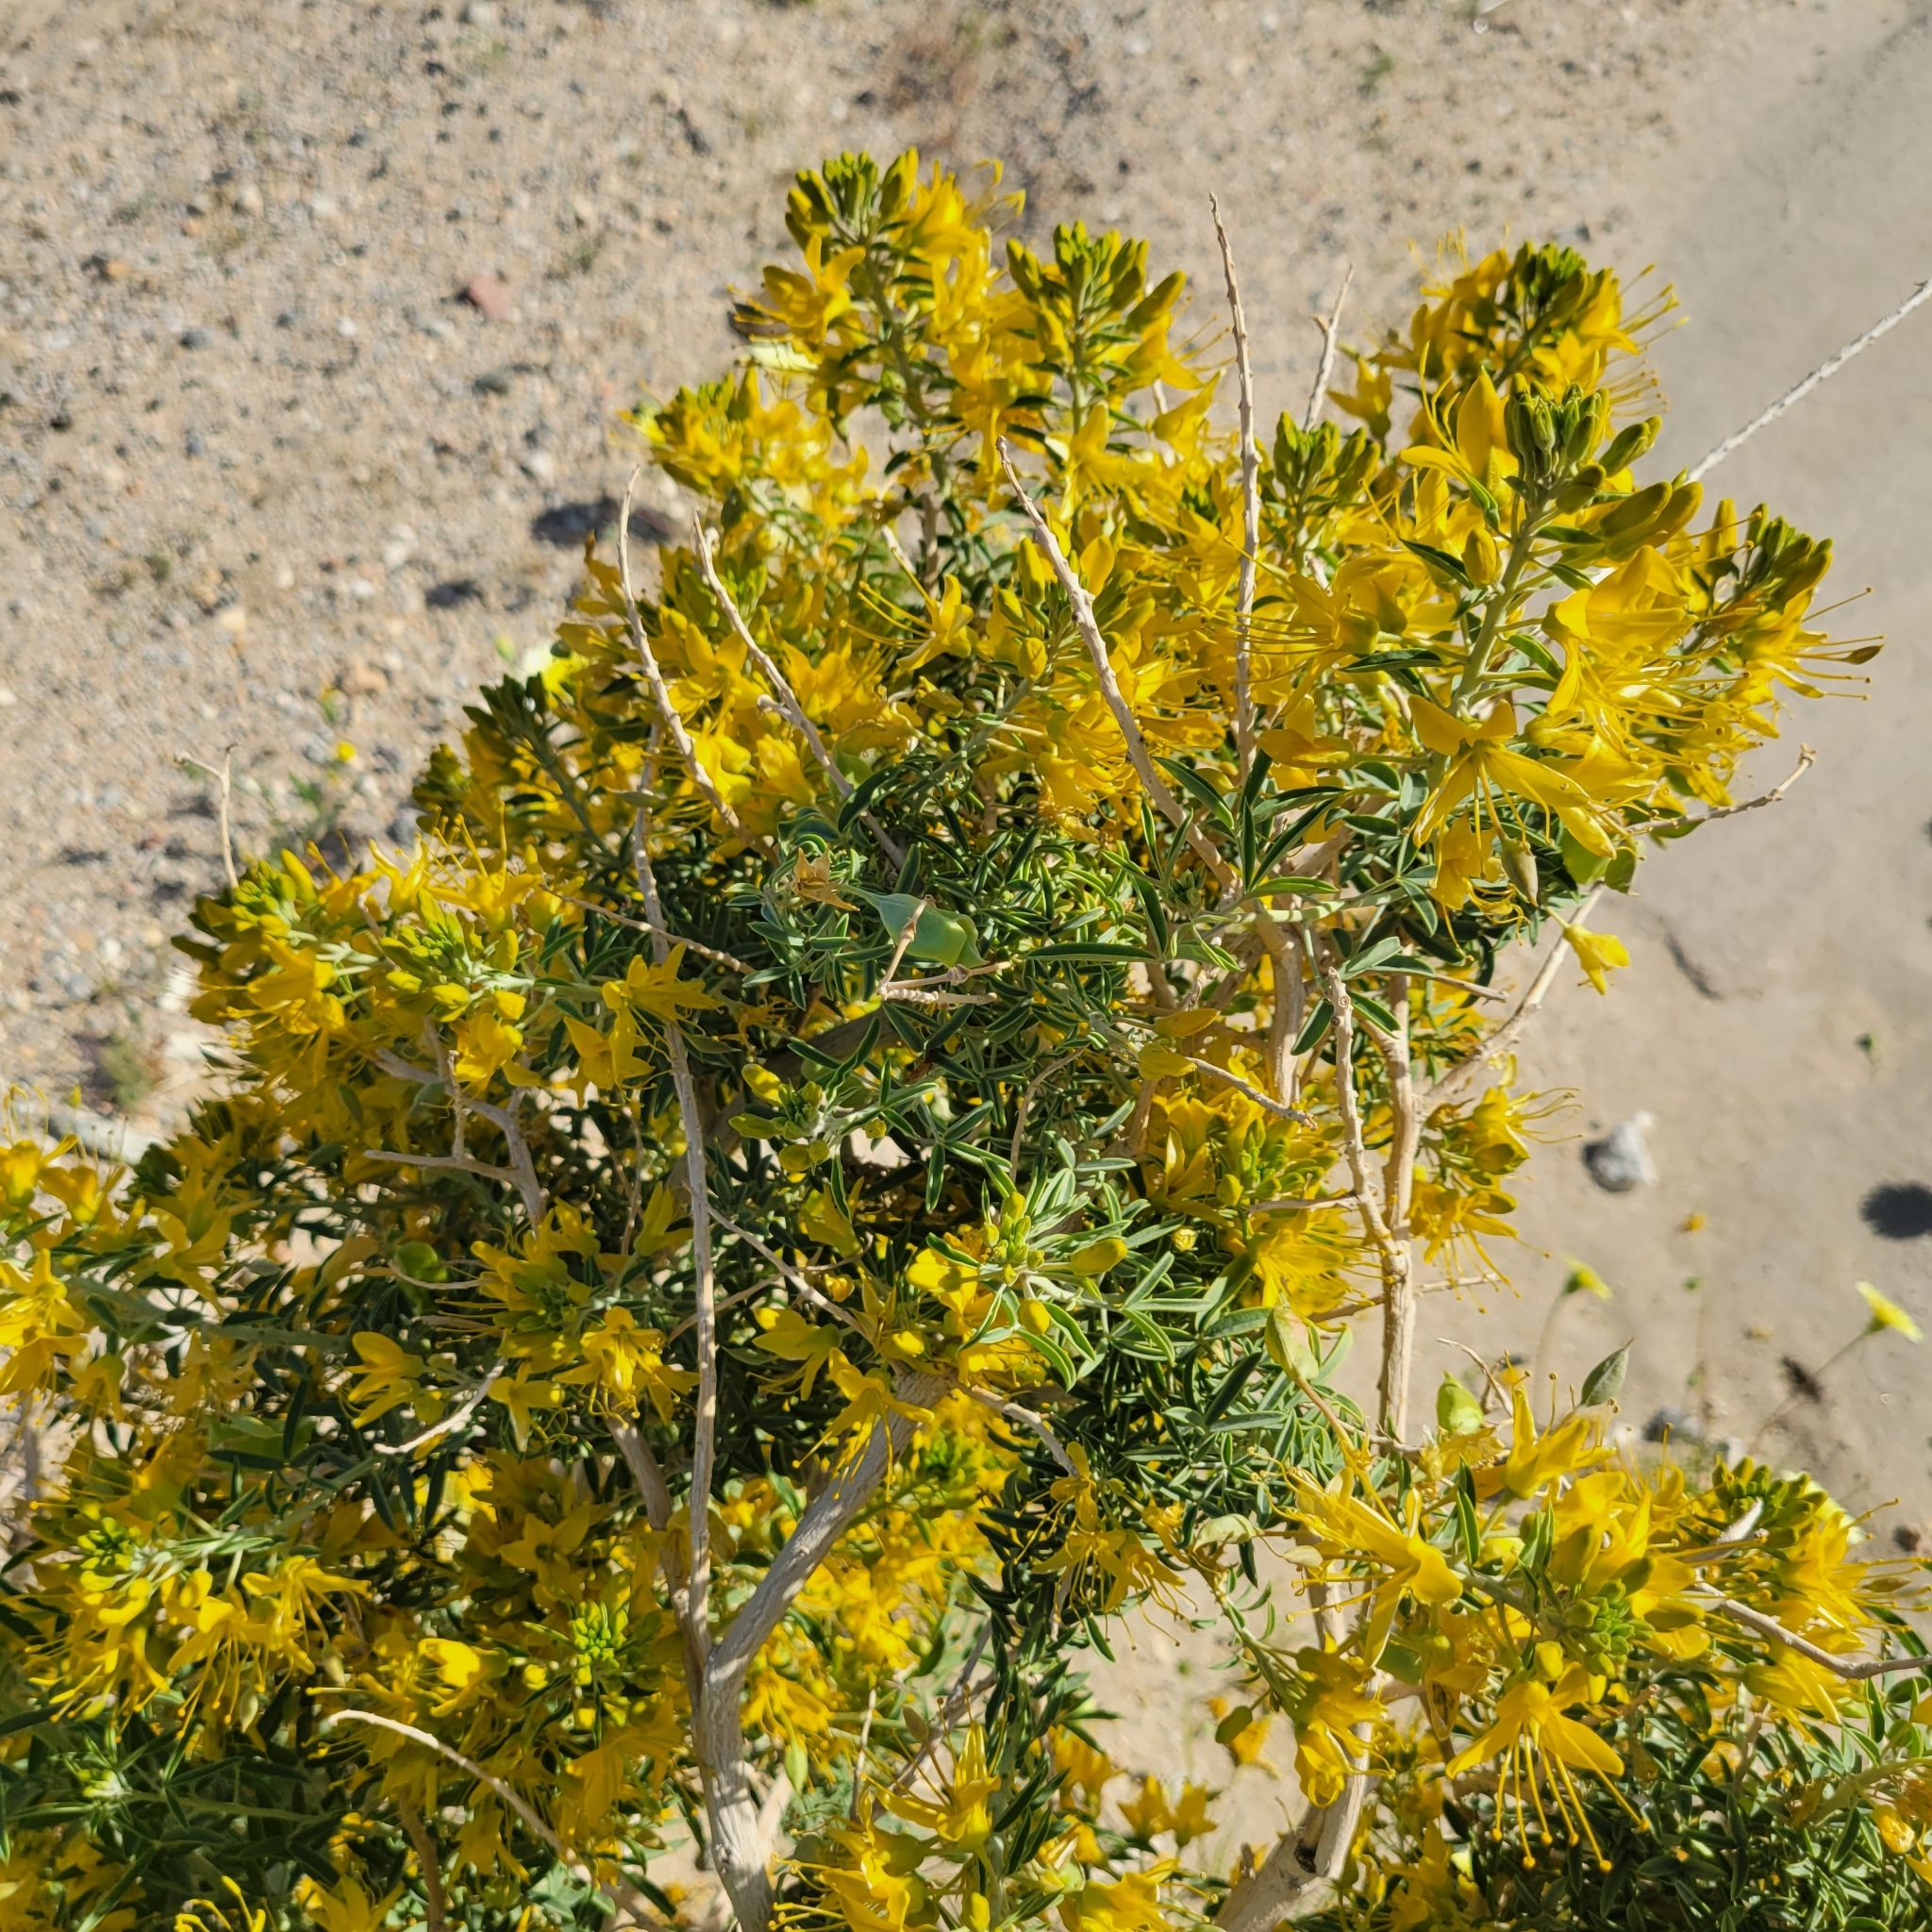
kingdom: Plantae
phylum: Tracheophyta
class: Magnoliopsida
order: Brassicales
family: Cleomaceae
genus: Cleomella
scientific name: Cleomella arborea
